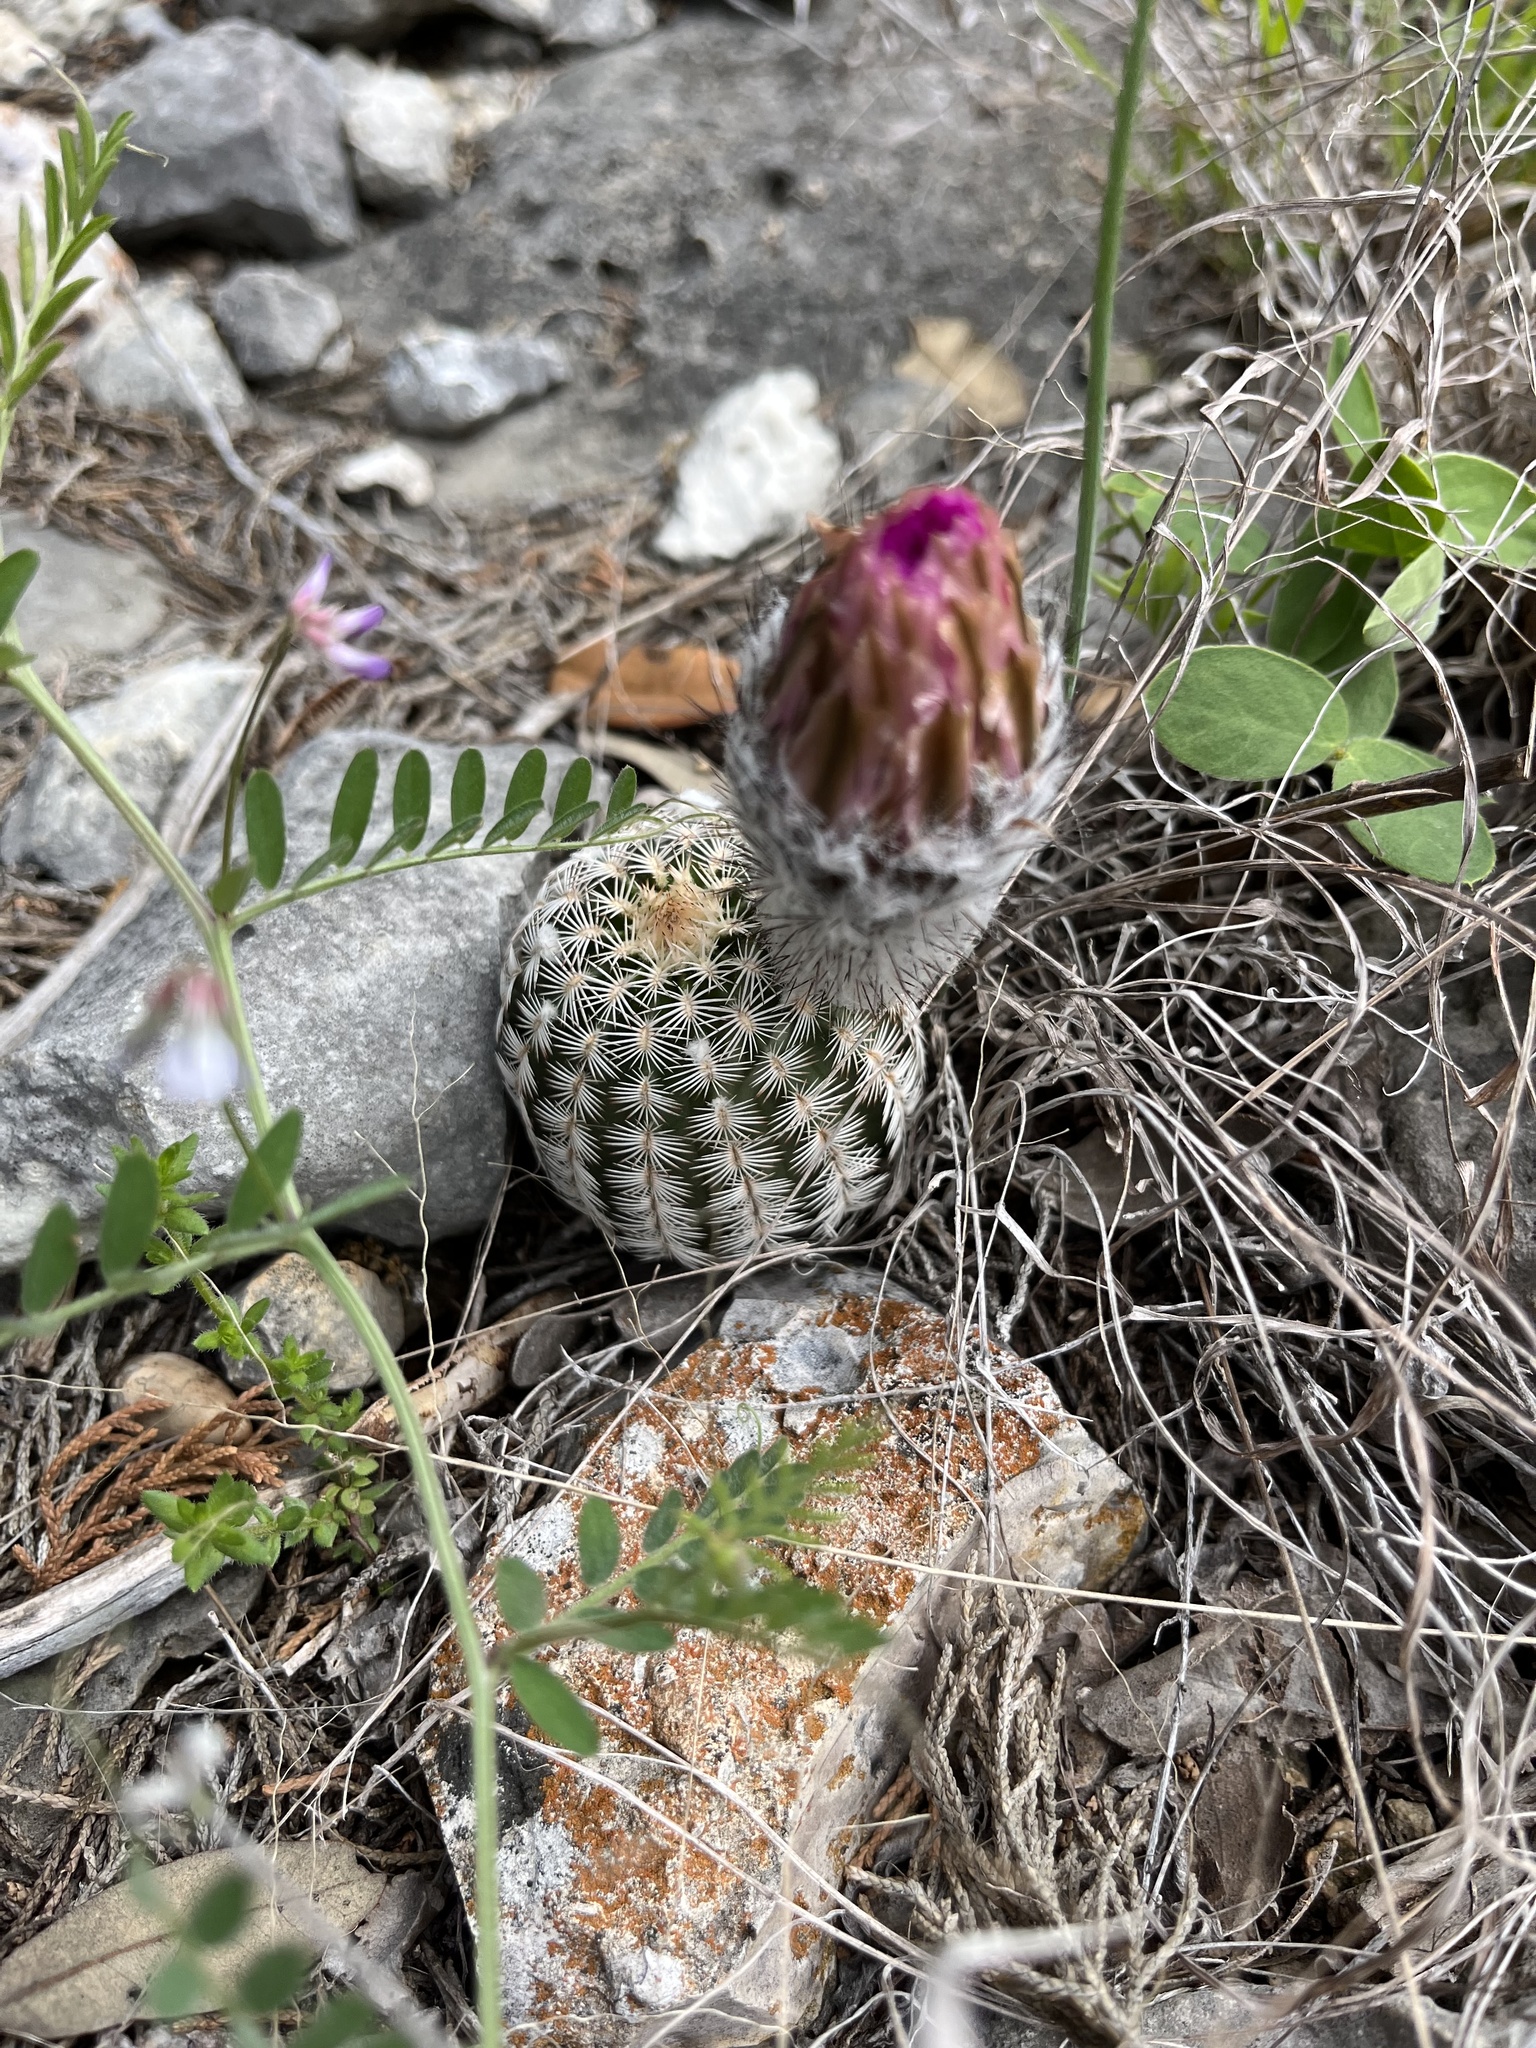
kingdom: Plantae
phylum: Tracheophyta
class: Magnoliopsida
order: Caryophyllales
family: Cactaceae
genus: Echinocereus
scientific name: Echinocereus reichenbachii
